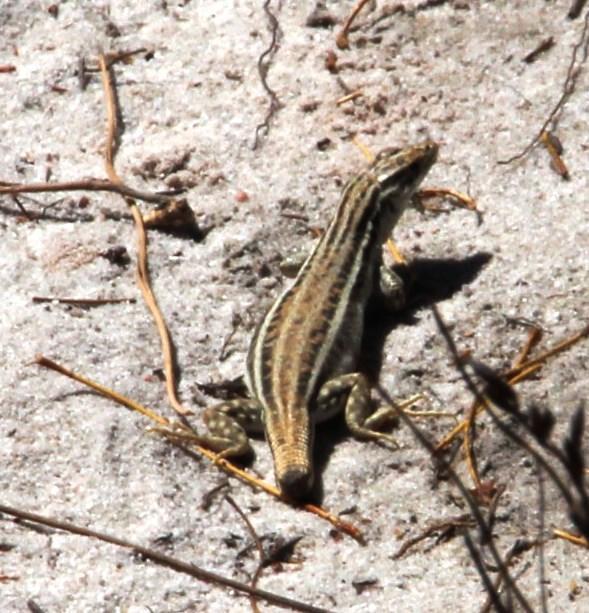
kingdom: Animalia
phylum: Chordata
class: Squamata
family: Lacertidae
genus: Pedioplanis
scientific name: Pedioplanis burchelli
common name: Burchell's sand lizard
